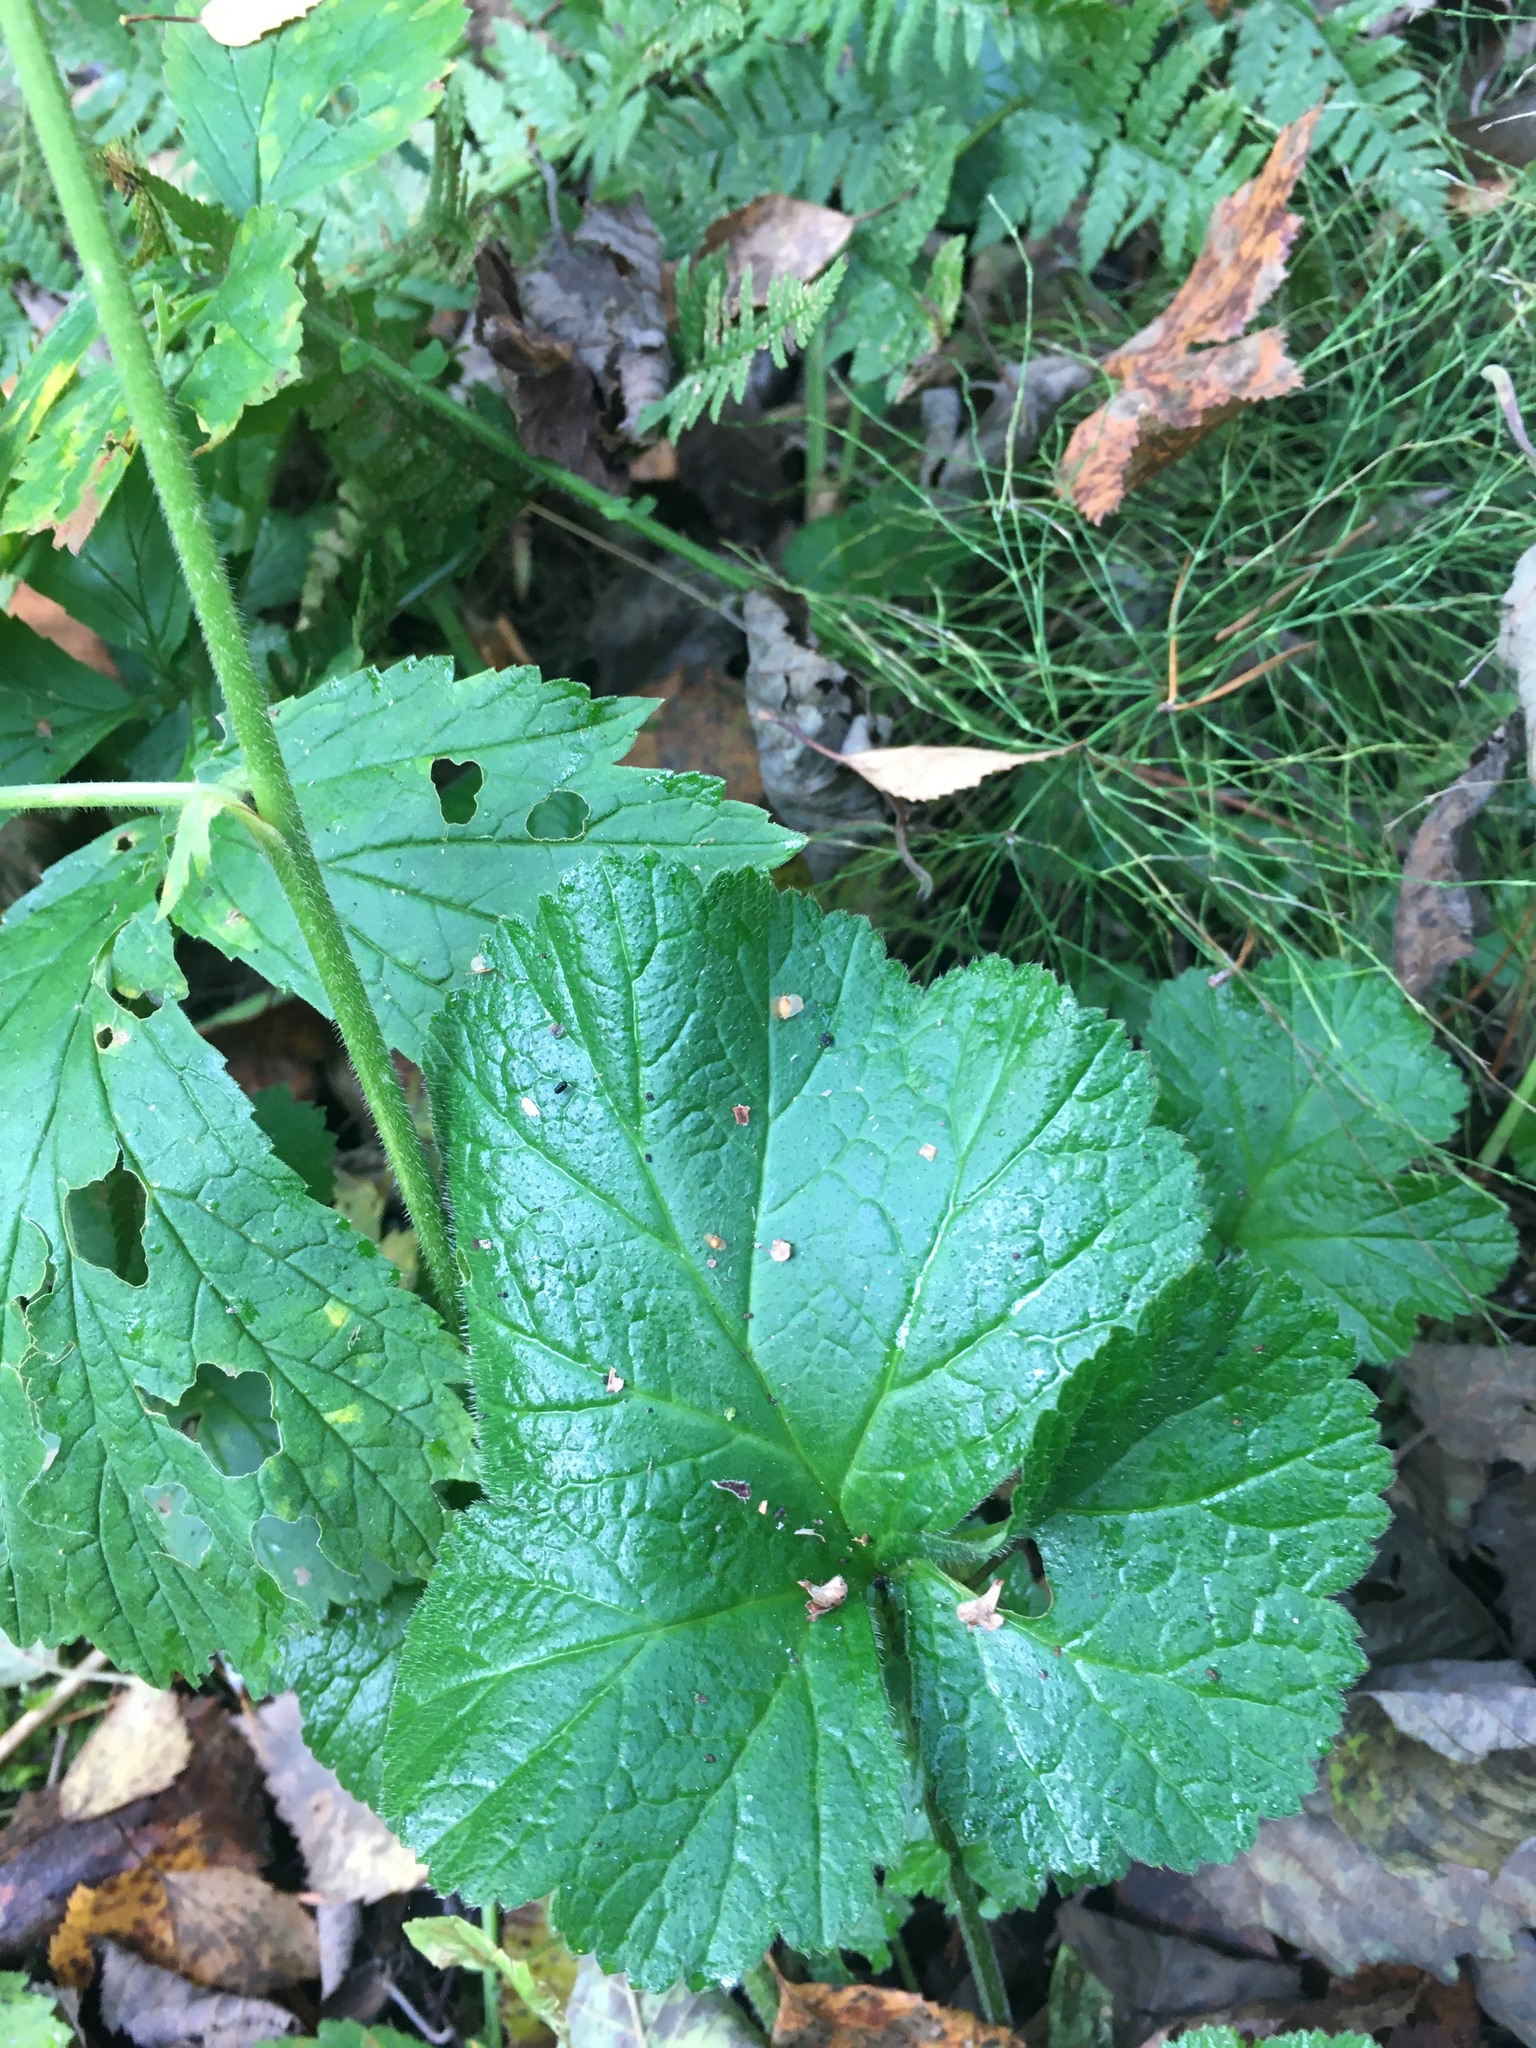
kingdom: Plantae
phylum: Tracheophyta
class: Magnoliopsida
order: Rosales
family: Rosaceae
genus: Geum
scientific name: Geum
